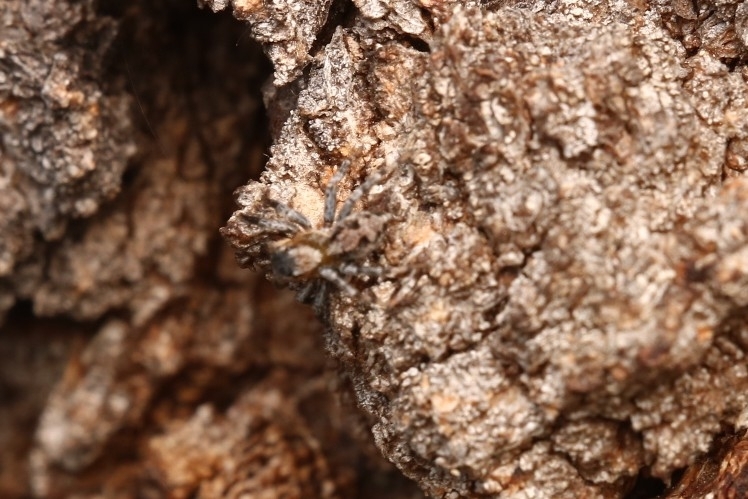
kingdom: Animalia
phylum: Arthropoda
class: Arachnida
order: Araneae
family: Salticidae
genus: Naphrys
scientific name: Naphrys pulex
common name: Flea jumping spider
